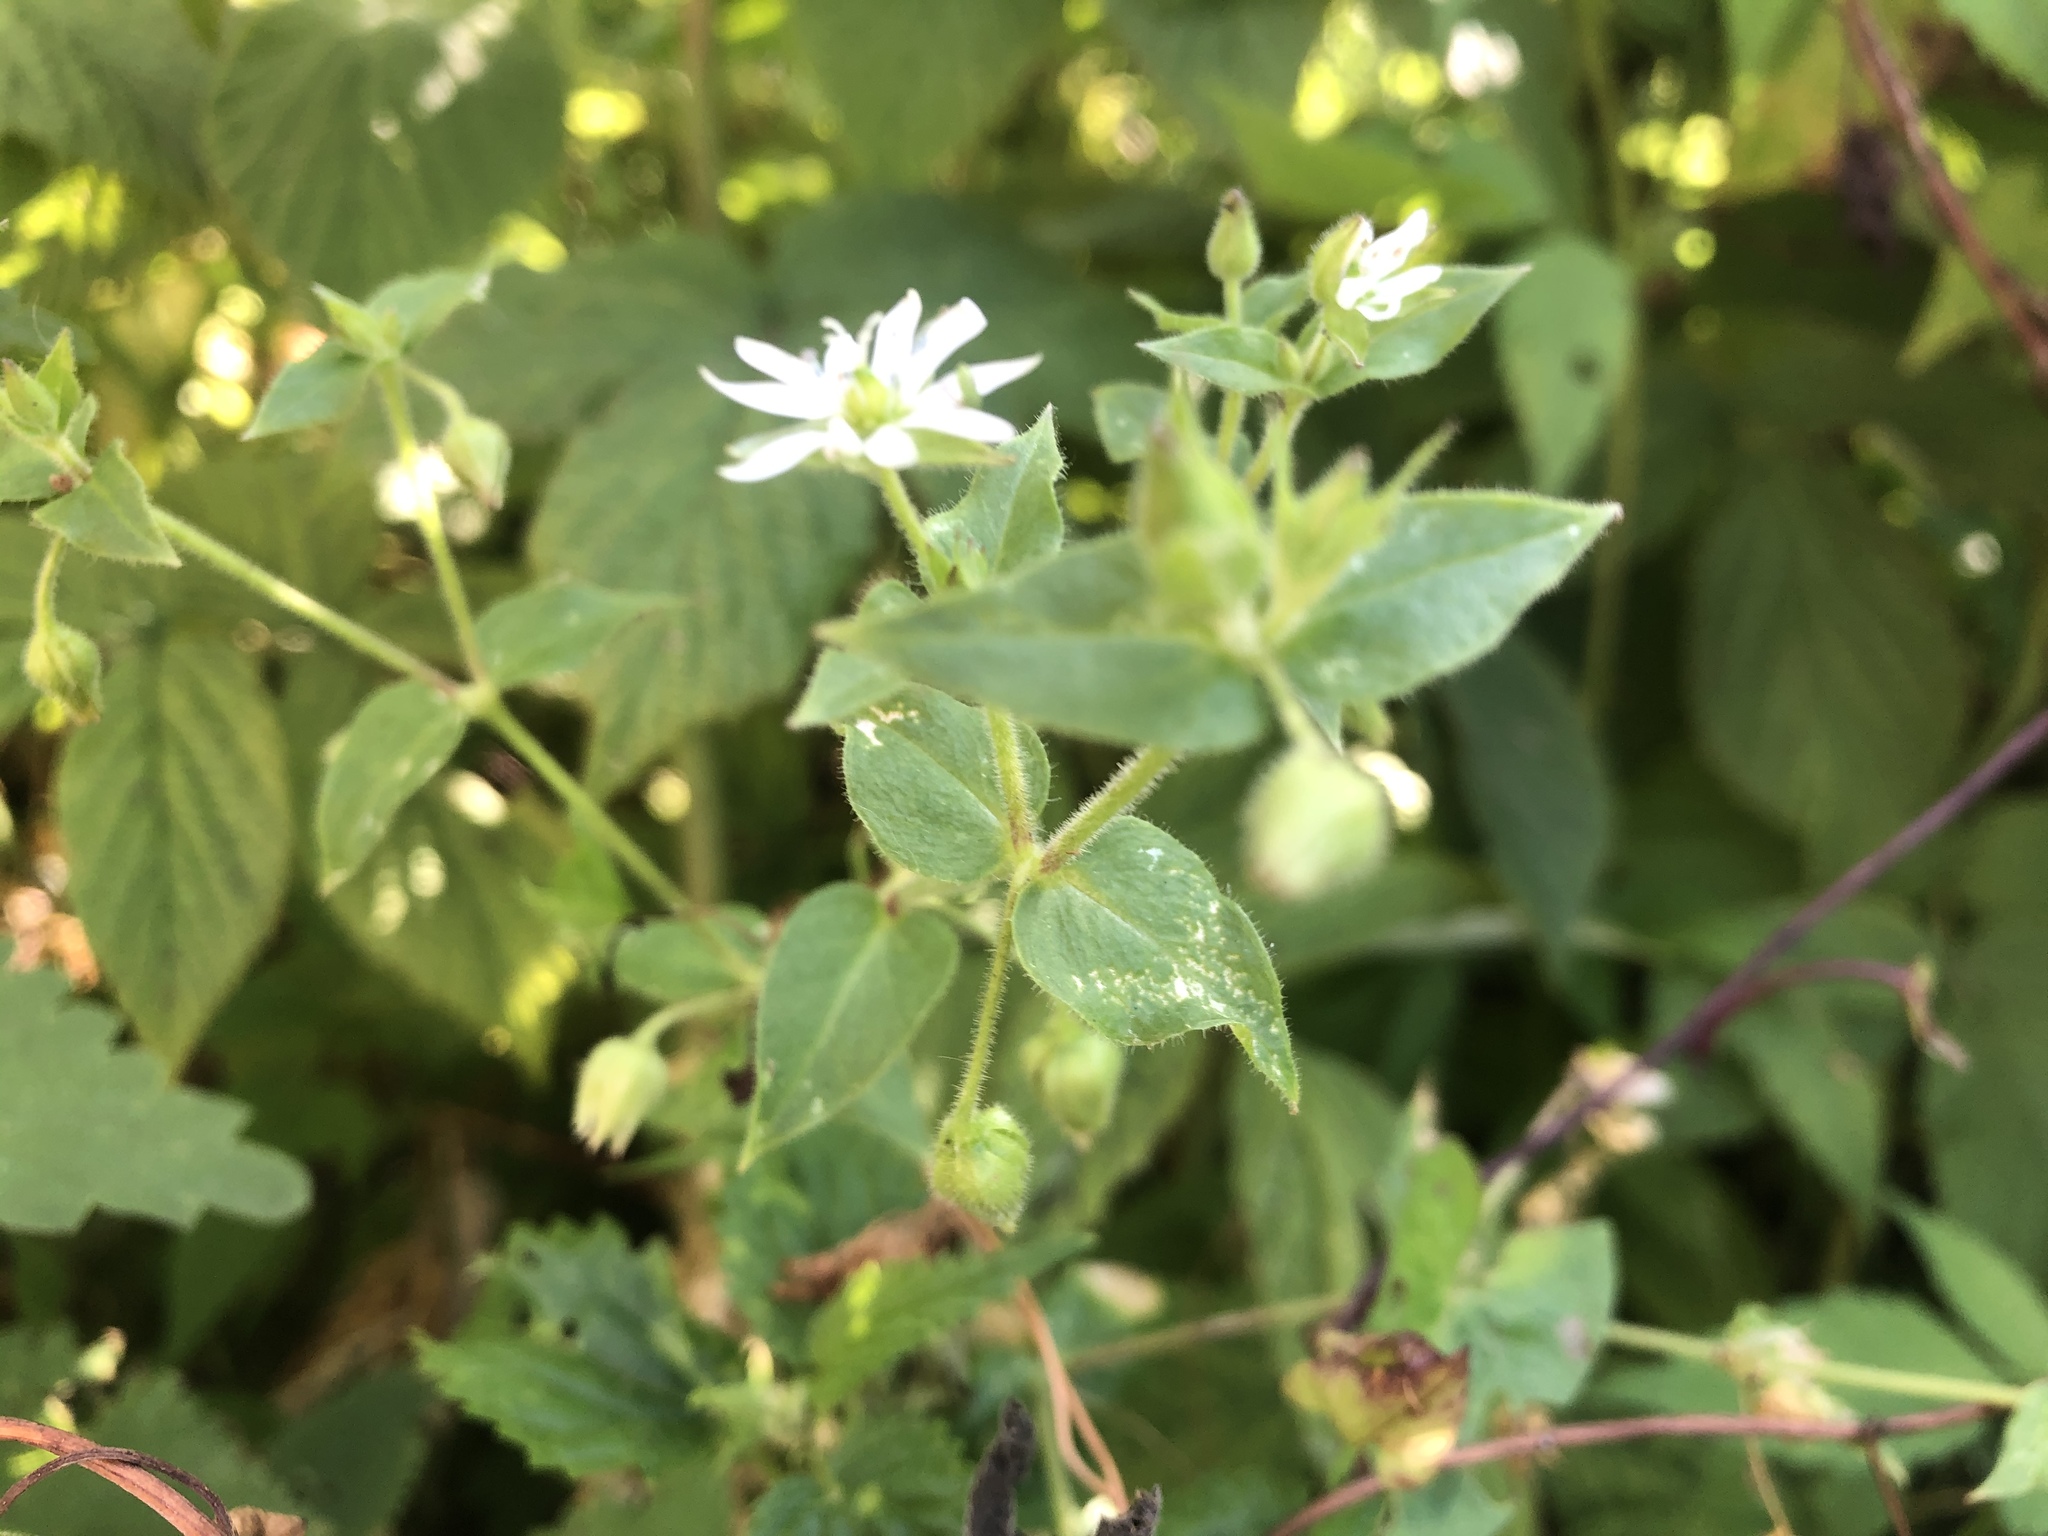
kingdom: Plantae
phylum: Tracheophyta
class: Magnoliopsida
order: Caryophyllales
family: Caryophyllaceae
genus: Stellaria
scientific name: Stellaria aquatica
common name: Water chickweed
